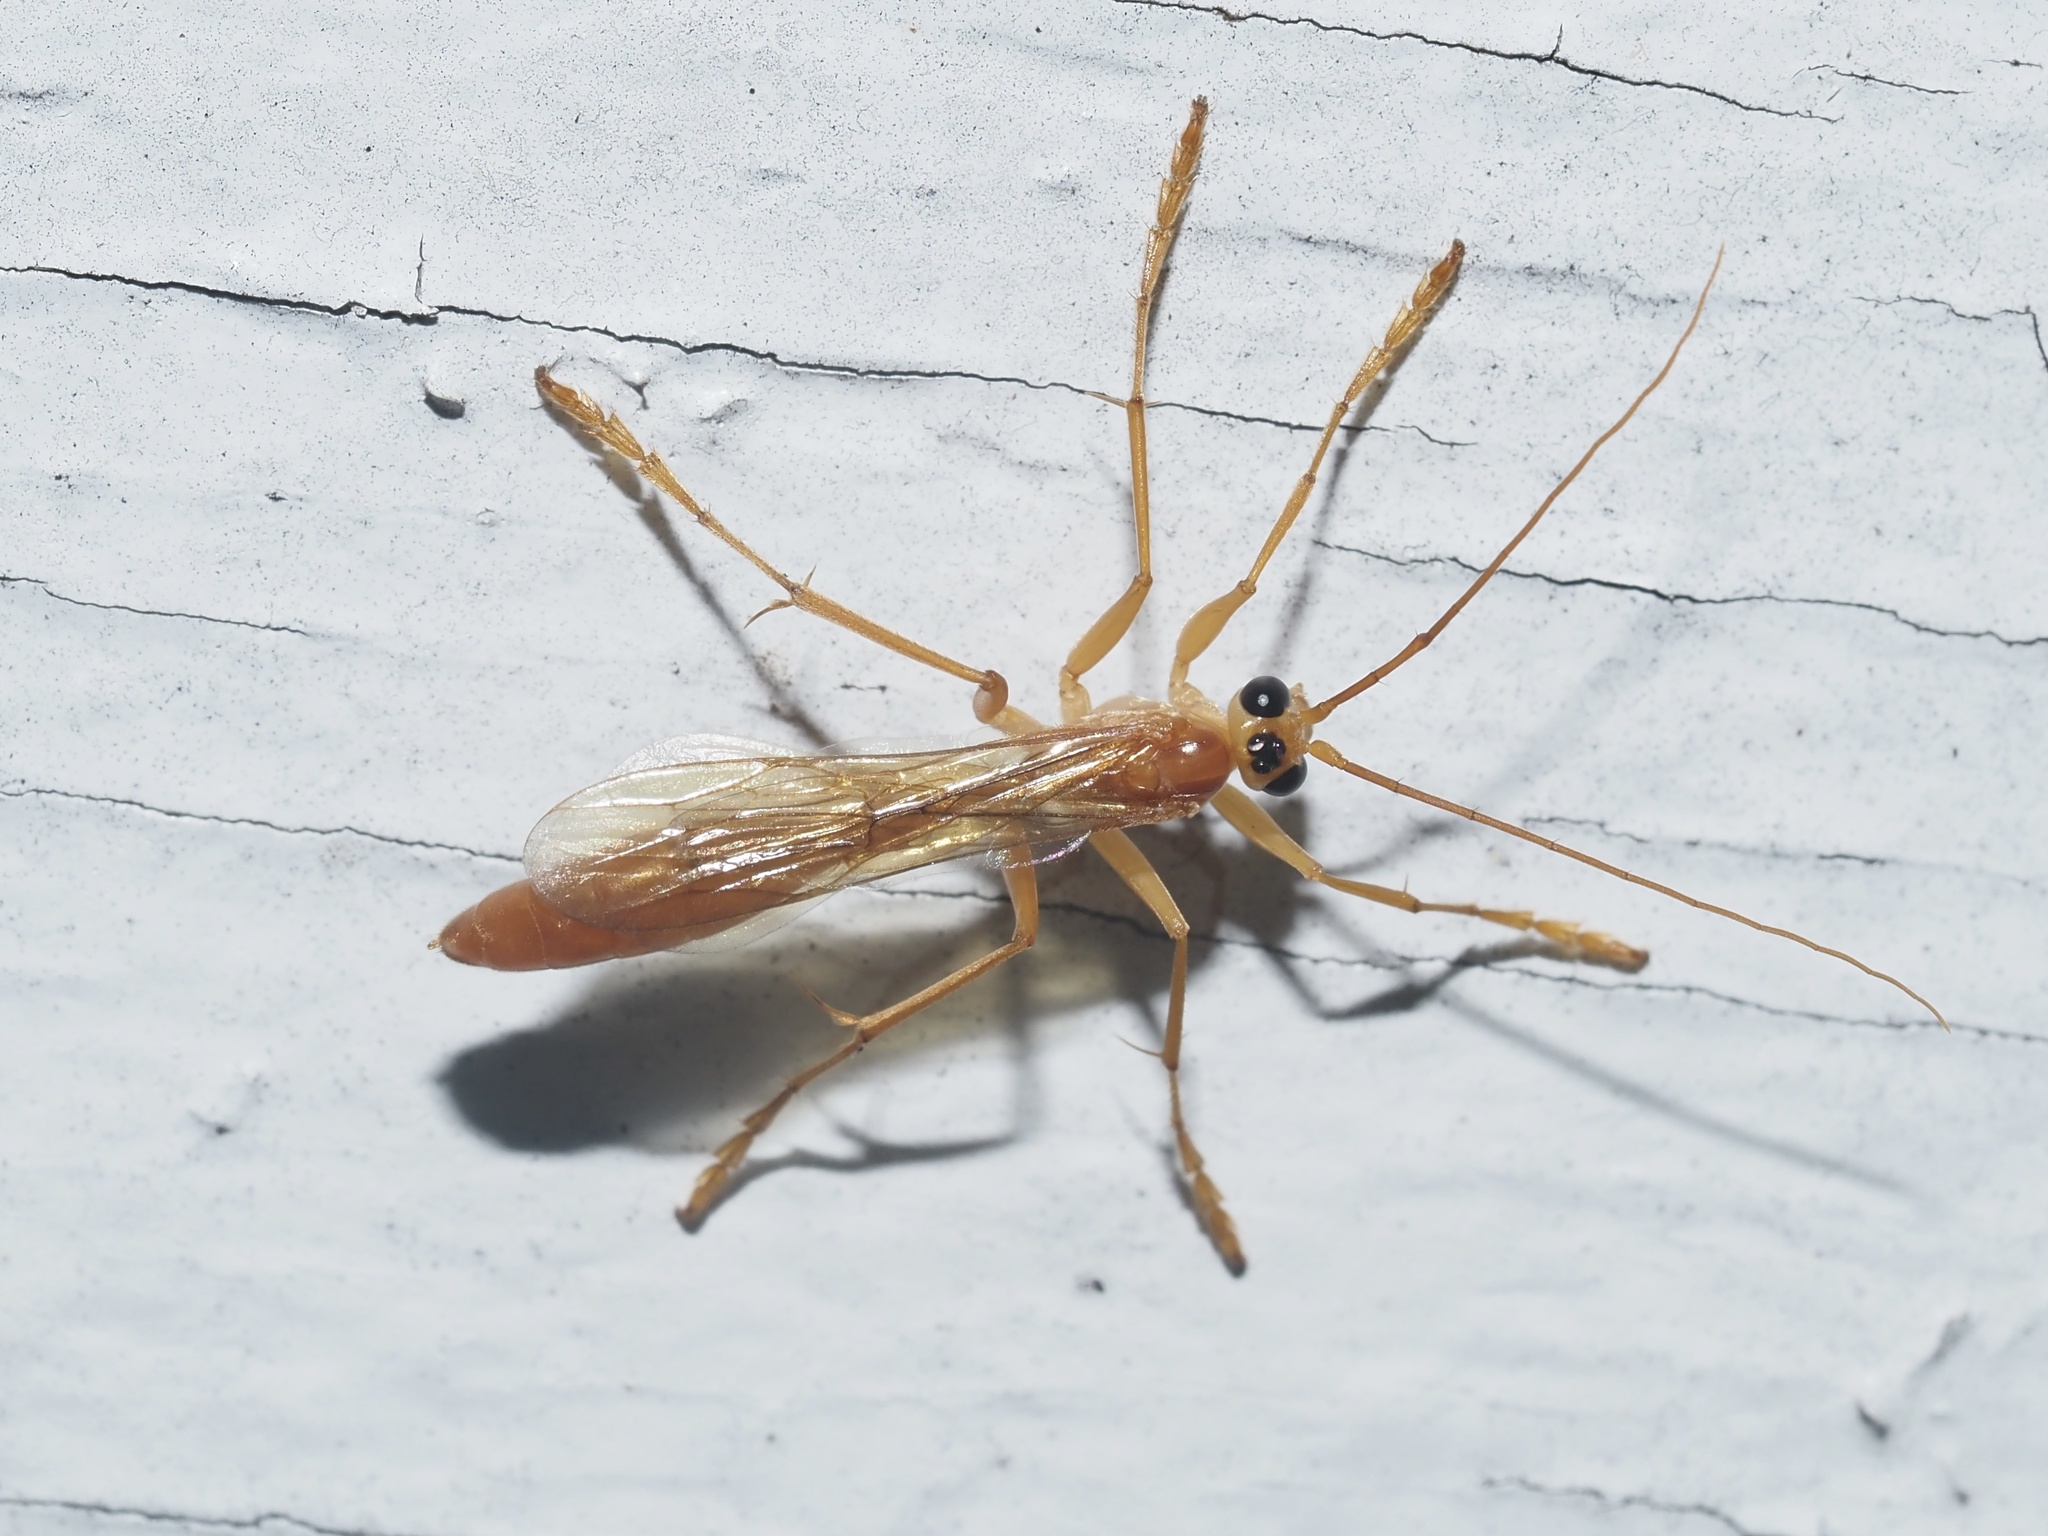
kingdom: Animalia
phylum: Arthropoda
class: Insecta
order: Hymenoptera
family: Rhopalosomatidae
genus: Rhopalosoma
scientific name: Rhopalosoma nearcticum
